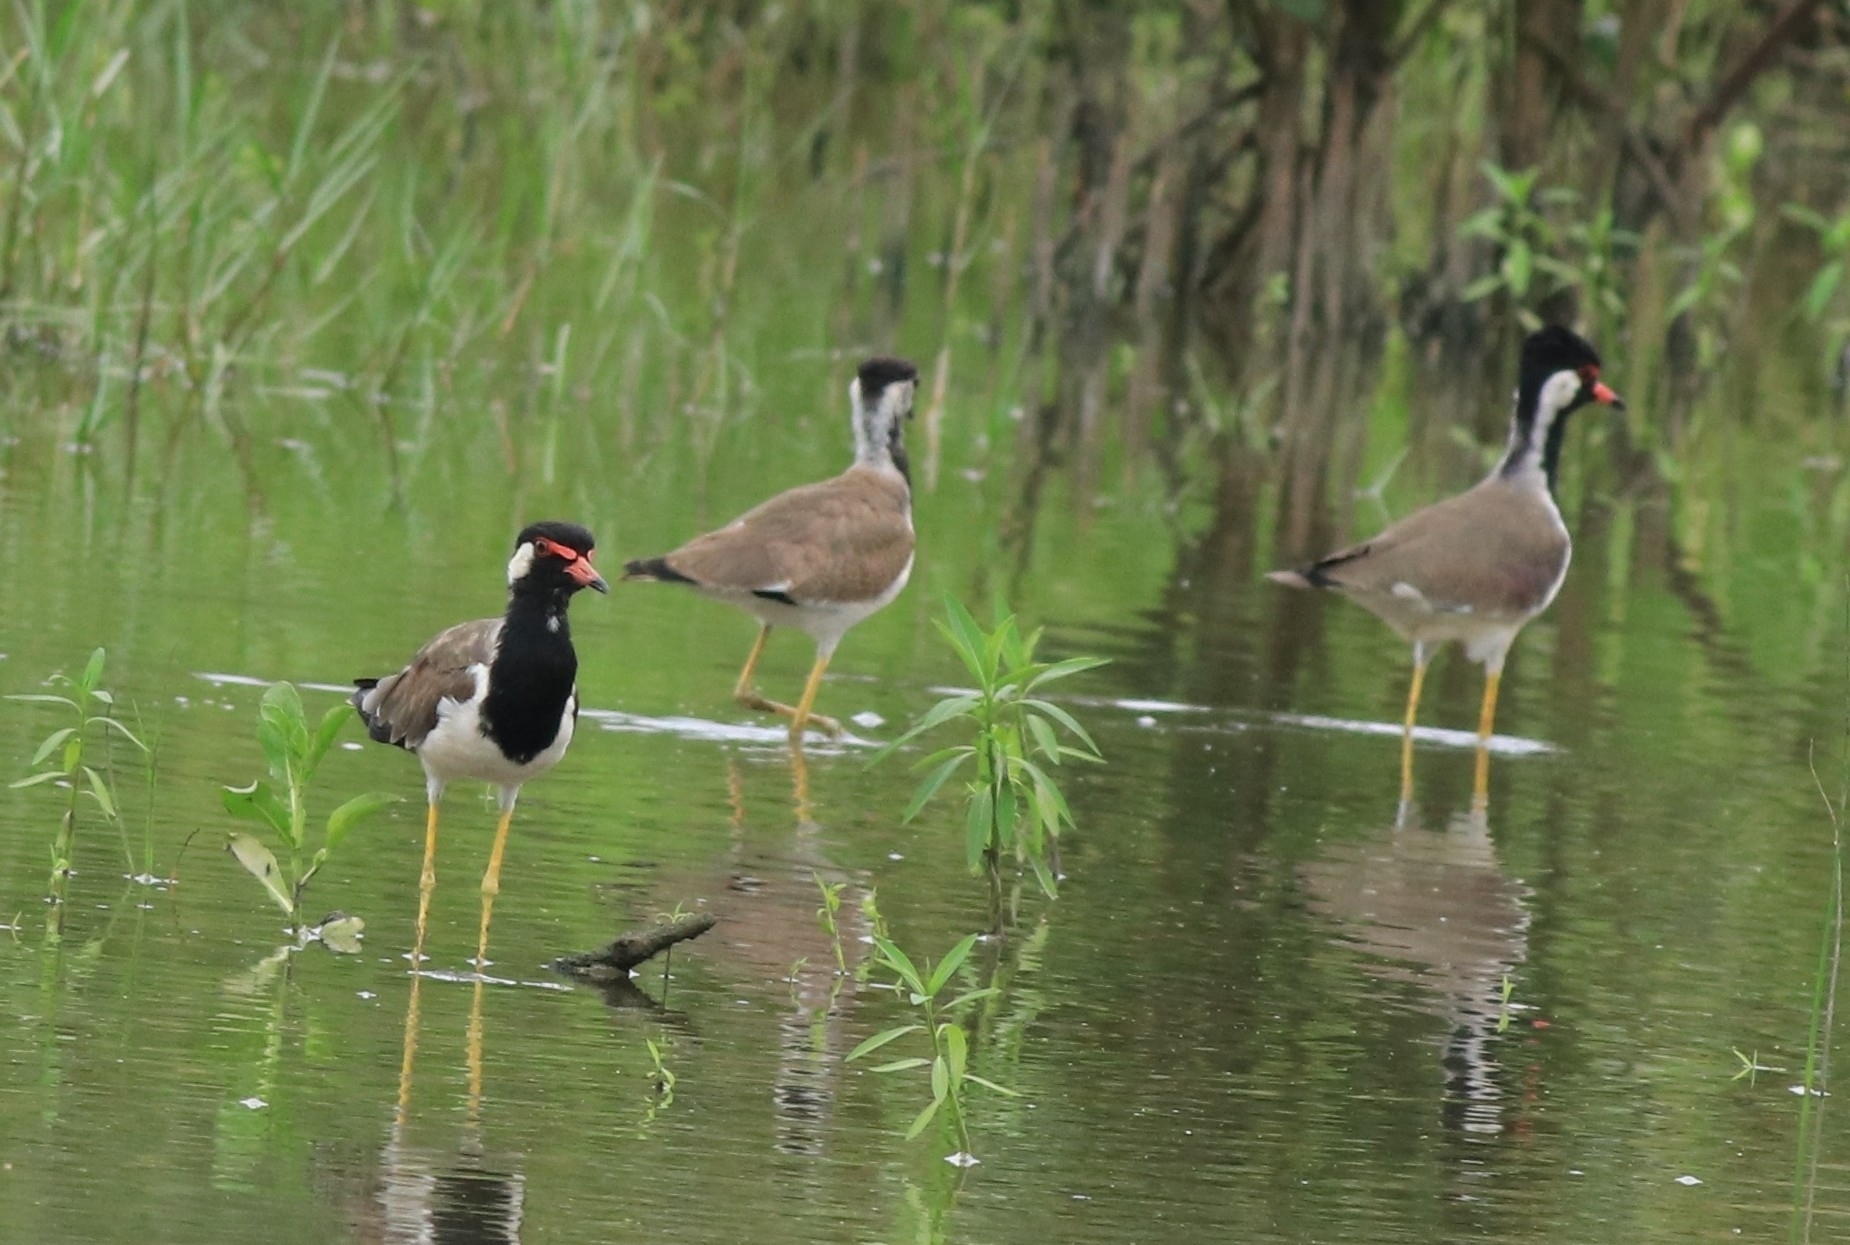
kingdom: Animalia
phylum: Chordata
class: Aves
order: Charadriiformes
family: Charadriidae
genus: Vanellus
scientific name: Vanellus indicus
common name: Red-wattled lapwing
